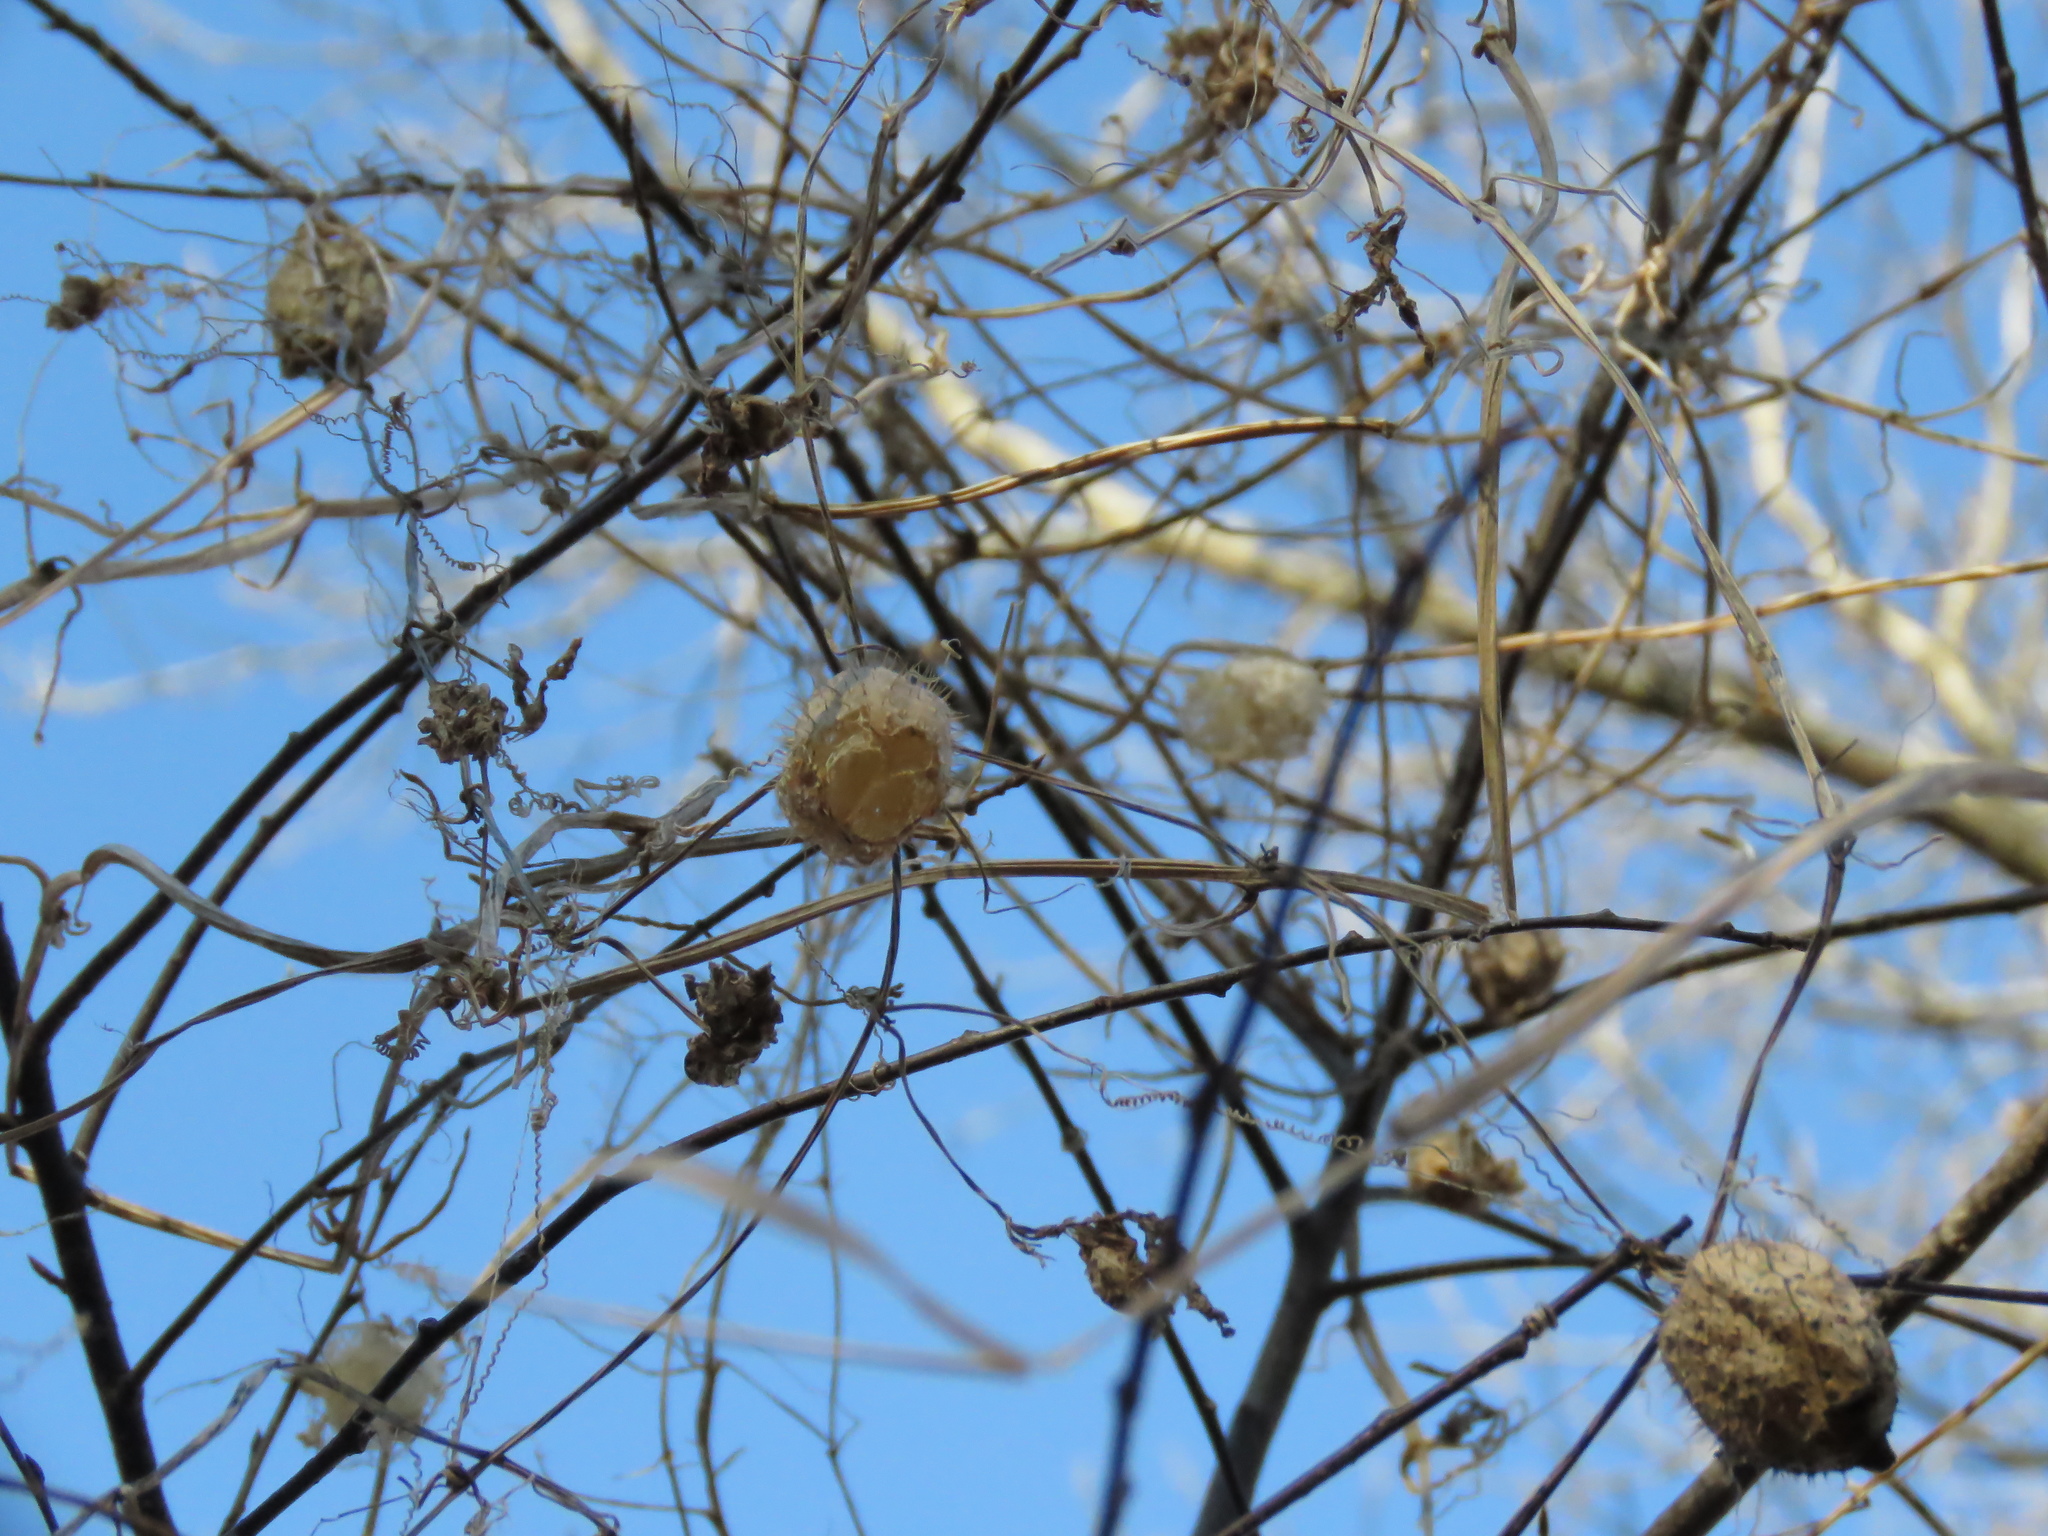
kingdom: Plantae
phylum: Tracheophyta
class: Magnoliopsida
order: Cucurbitales
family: Cucurbitaceae
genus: Echinocystis
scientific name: Echinocystis lobata
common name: Wild cucumber
